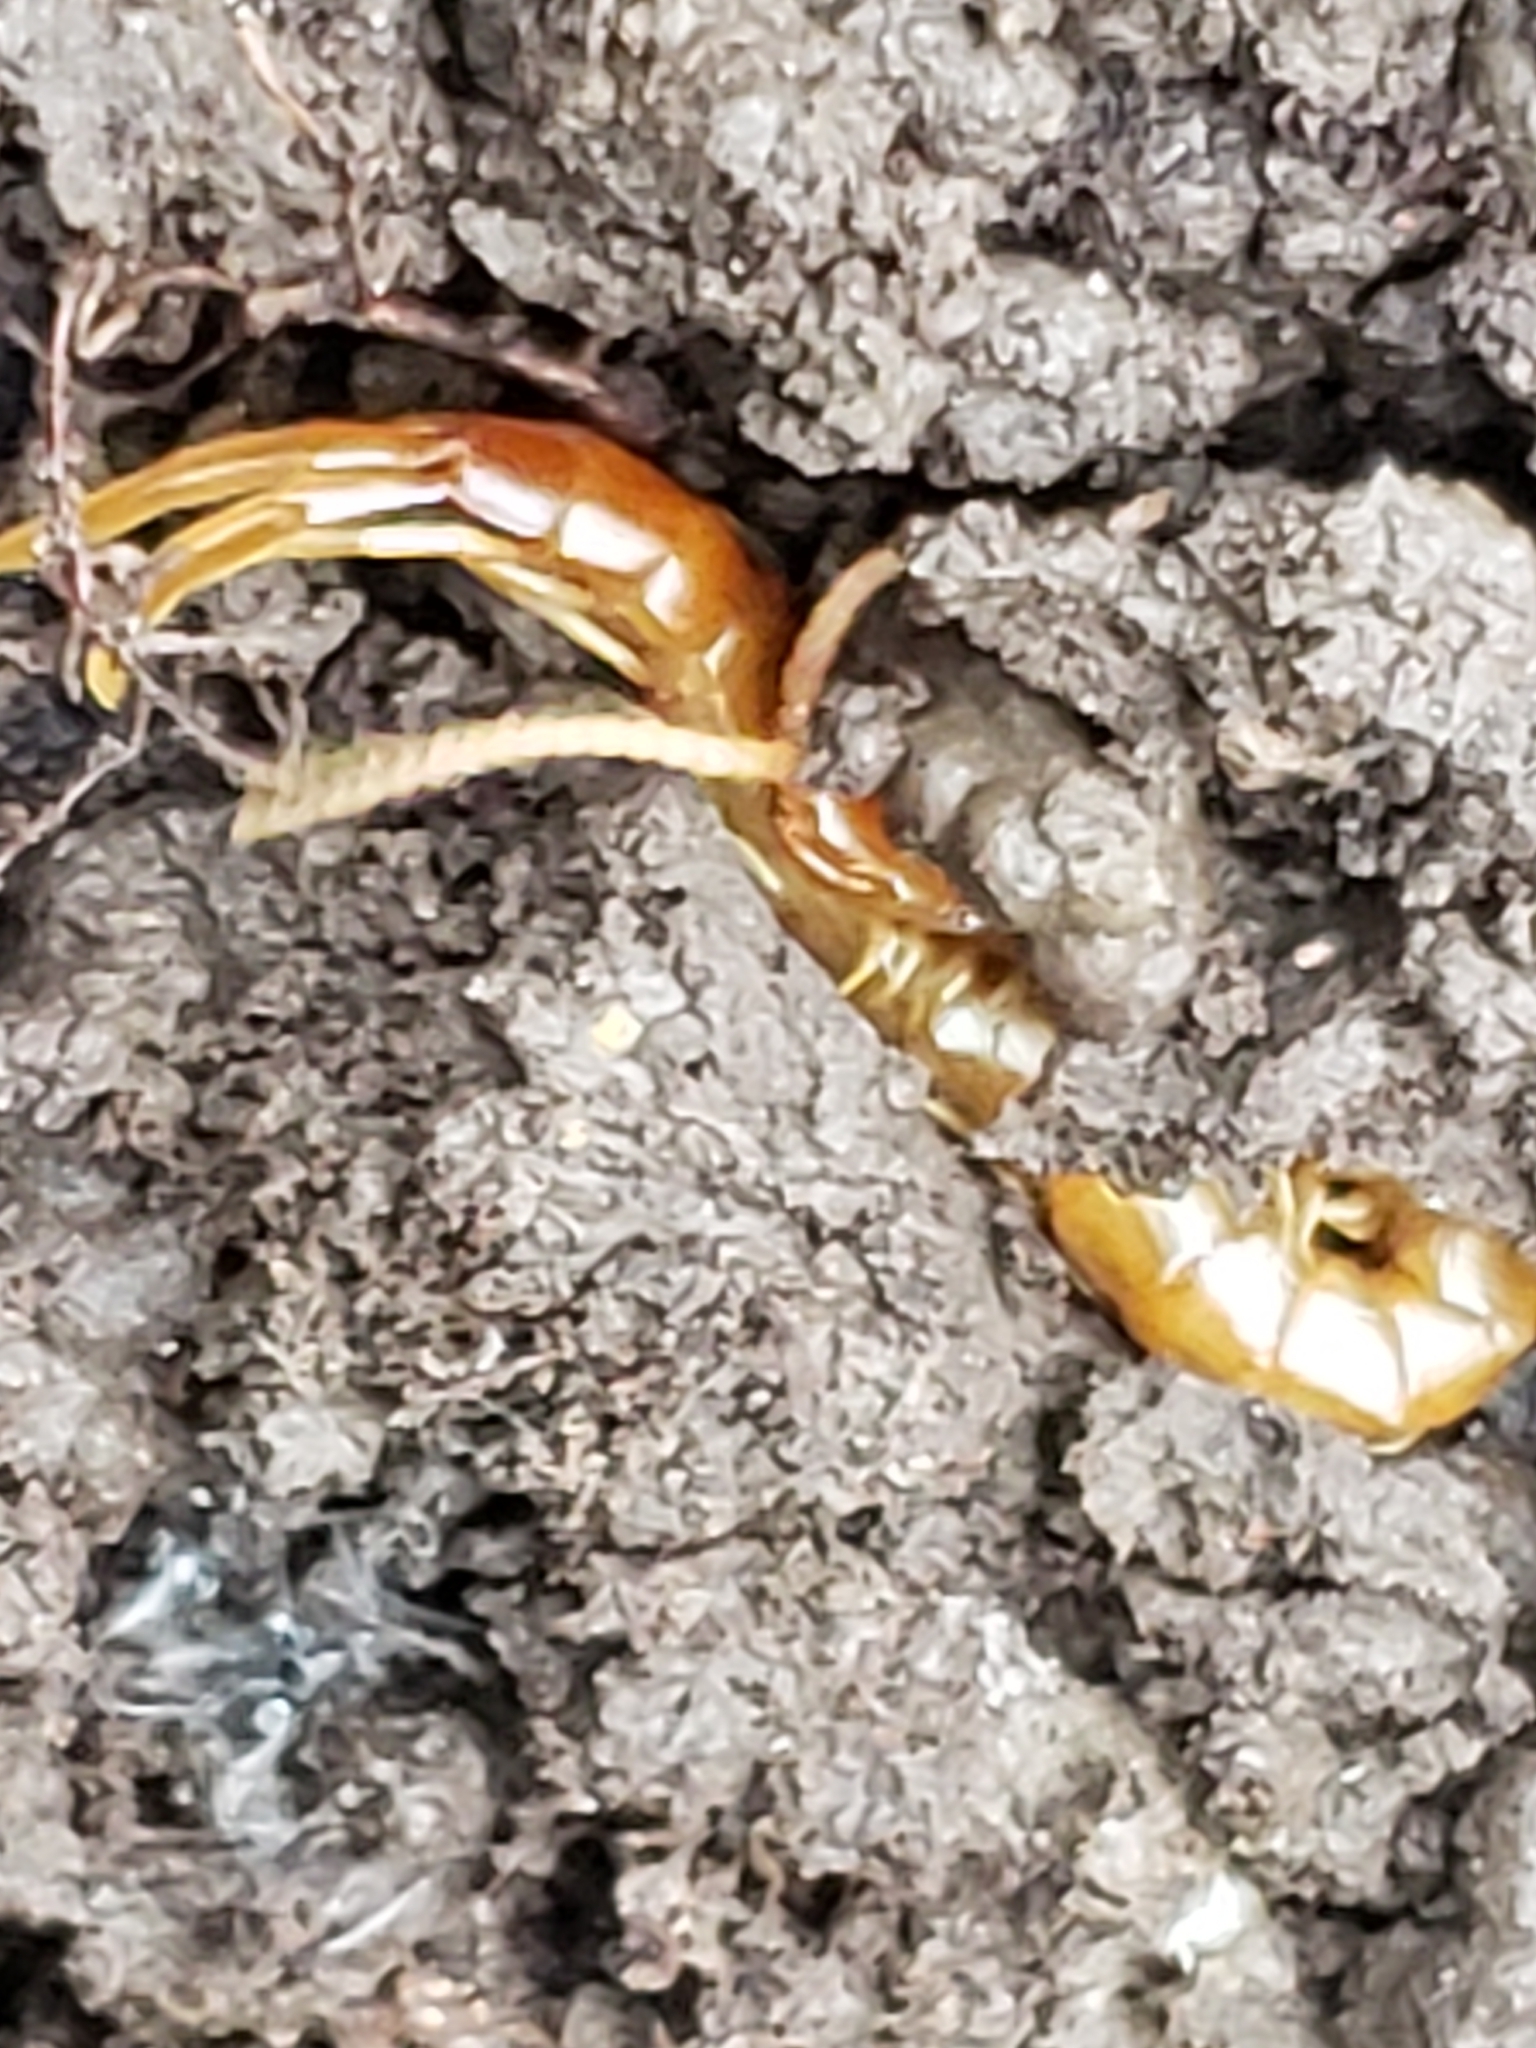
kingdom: Animalia
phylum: Arthropoda
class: Chilopoda
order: Scolopendromorpha
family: Scolopocryptopidae
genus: Scolopocryptops
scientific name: Scolopocryptops peregrinator
